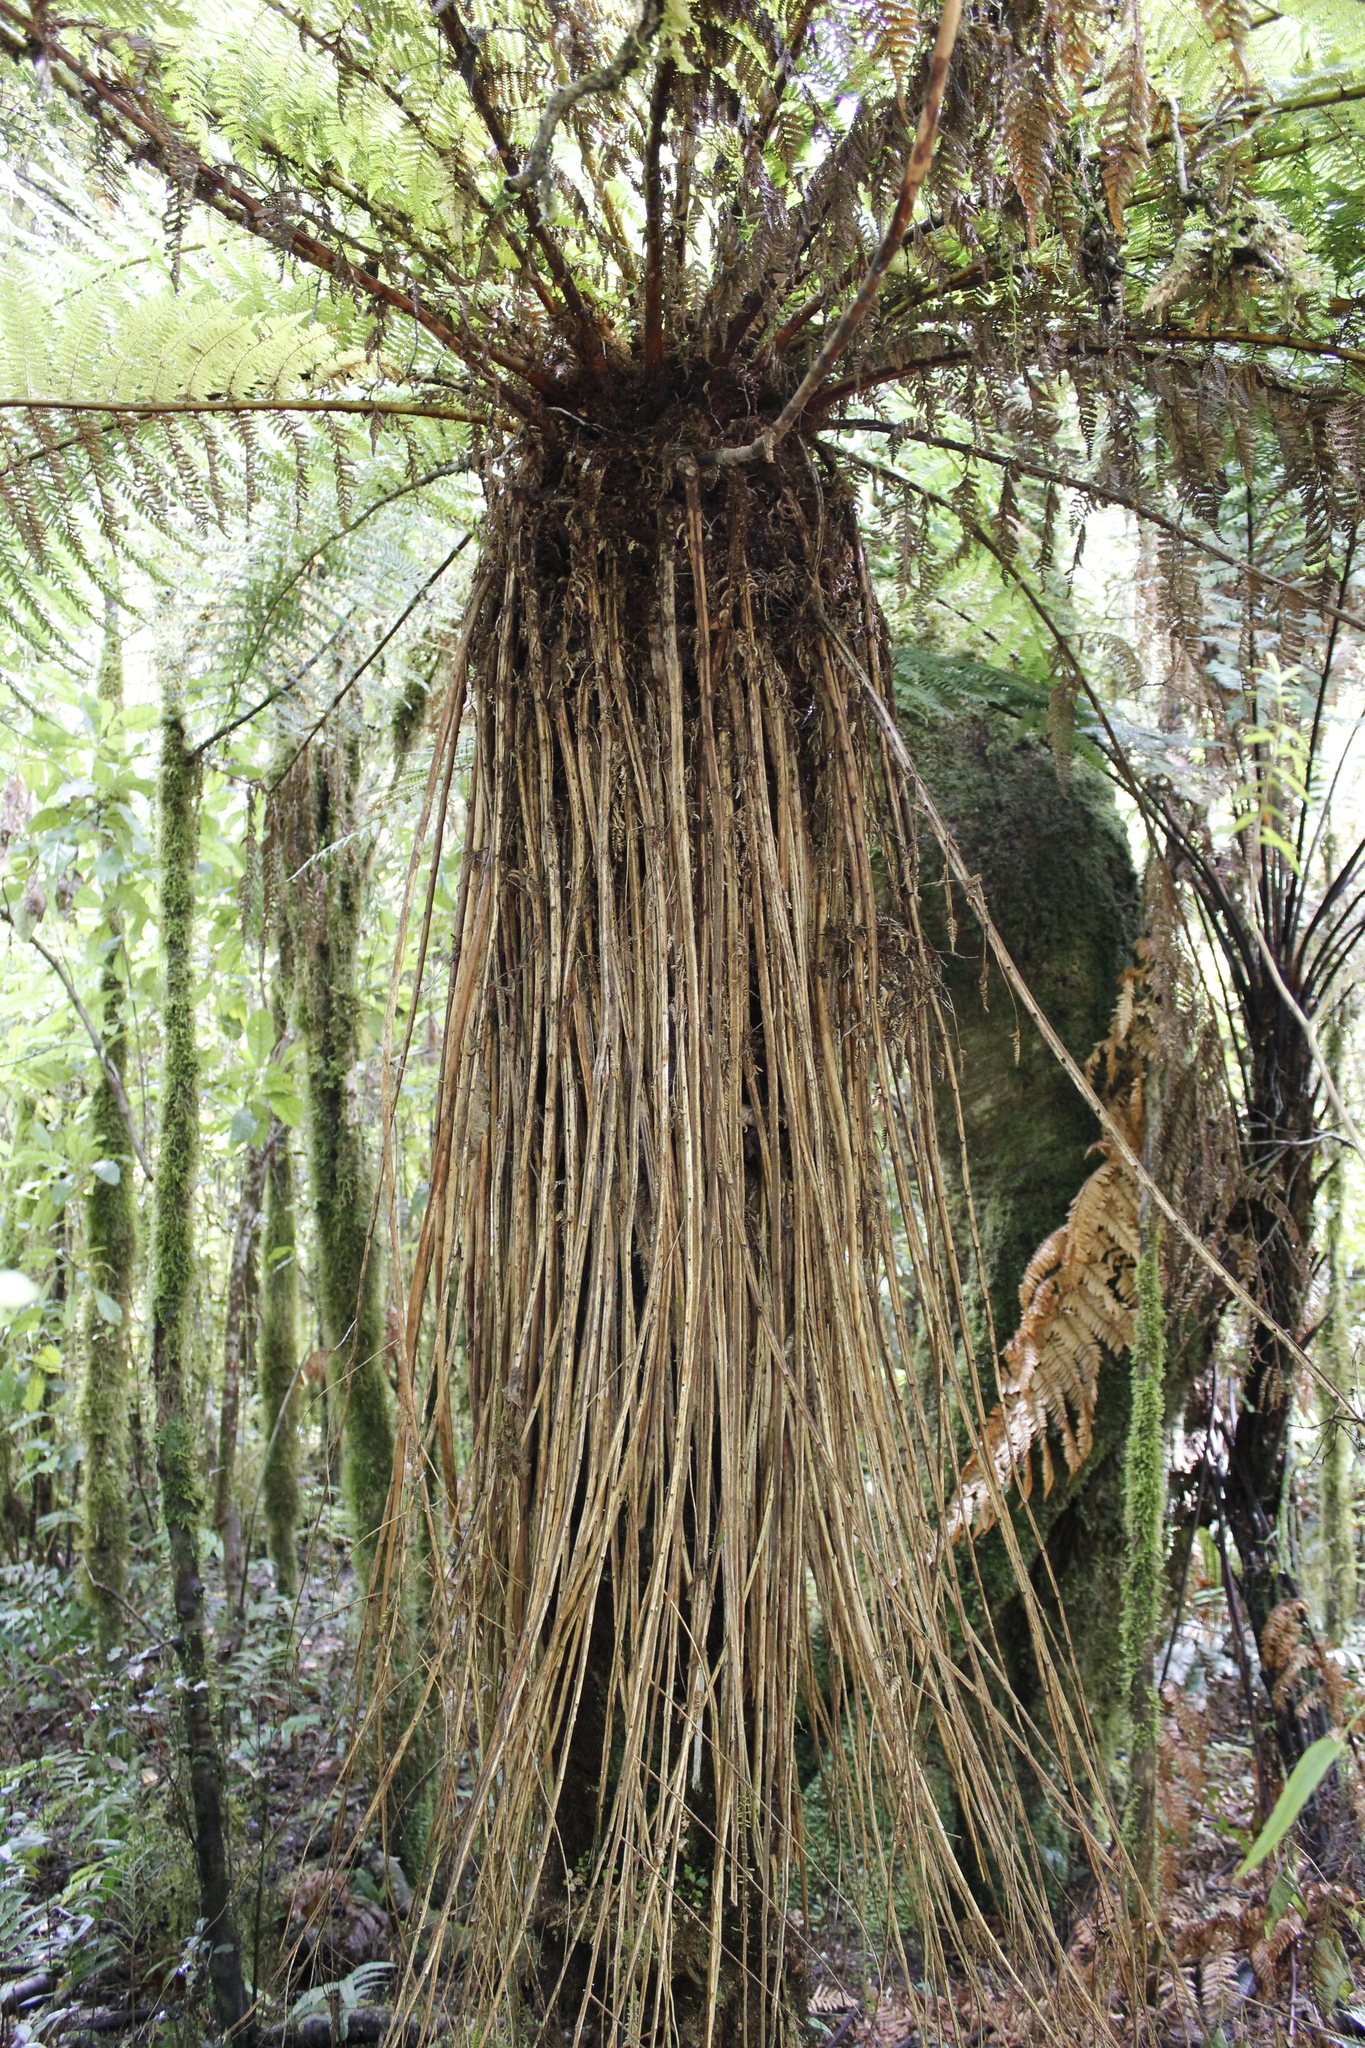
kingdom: Plantae
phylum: Tracheophyta
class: Polypodiopsida
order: Cyatheales
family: Cyatheaceae
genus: Alsophila
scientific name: Alsophila smithii
